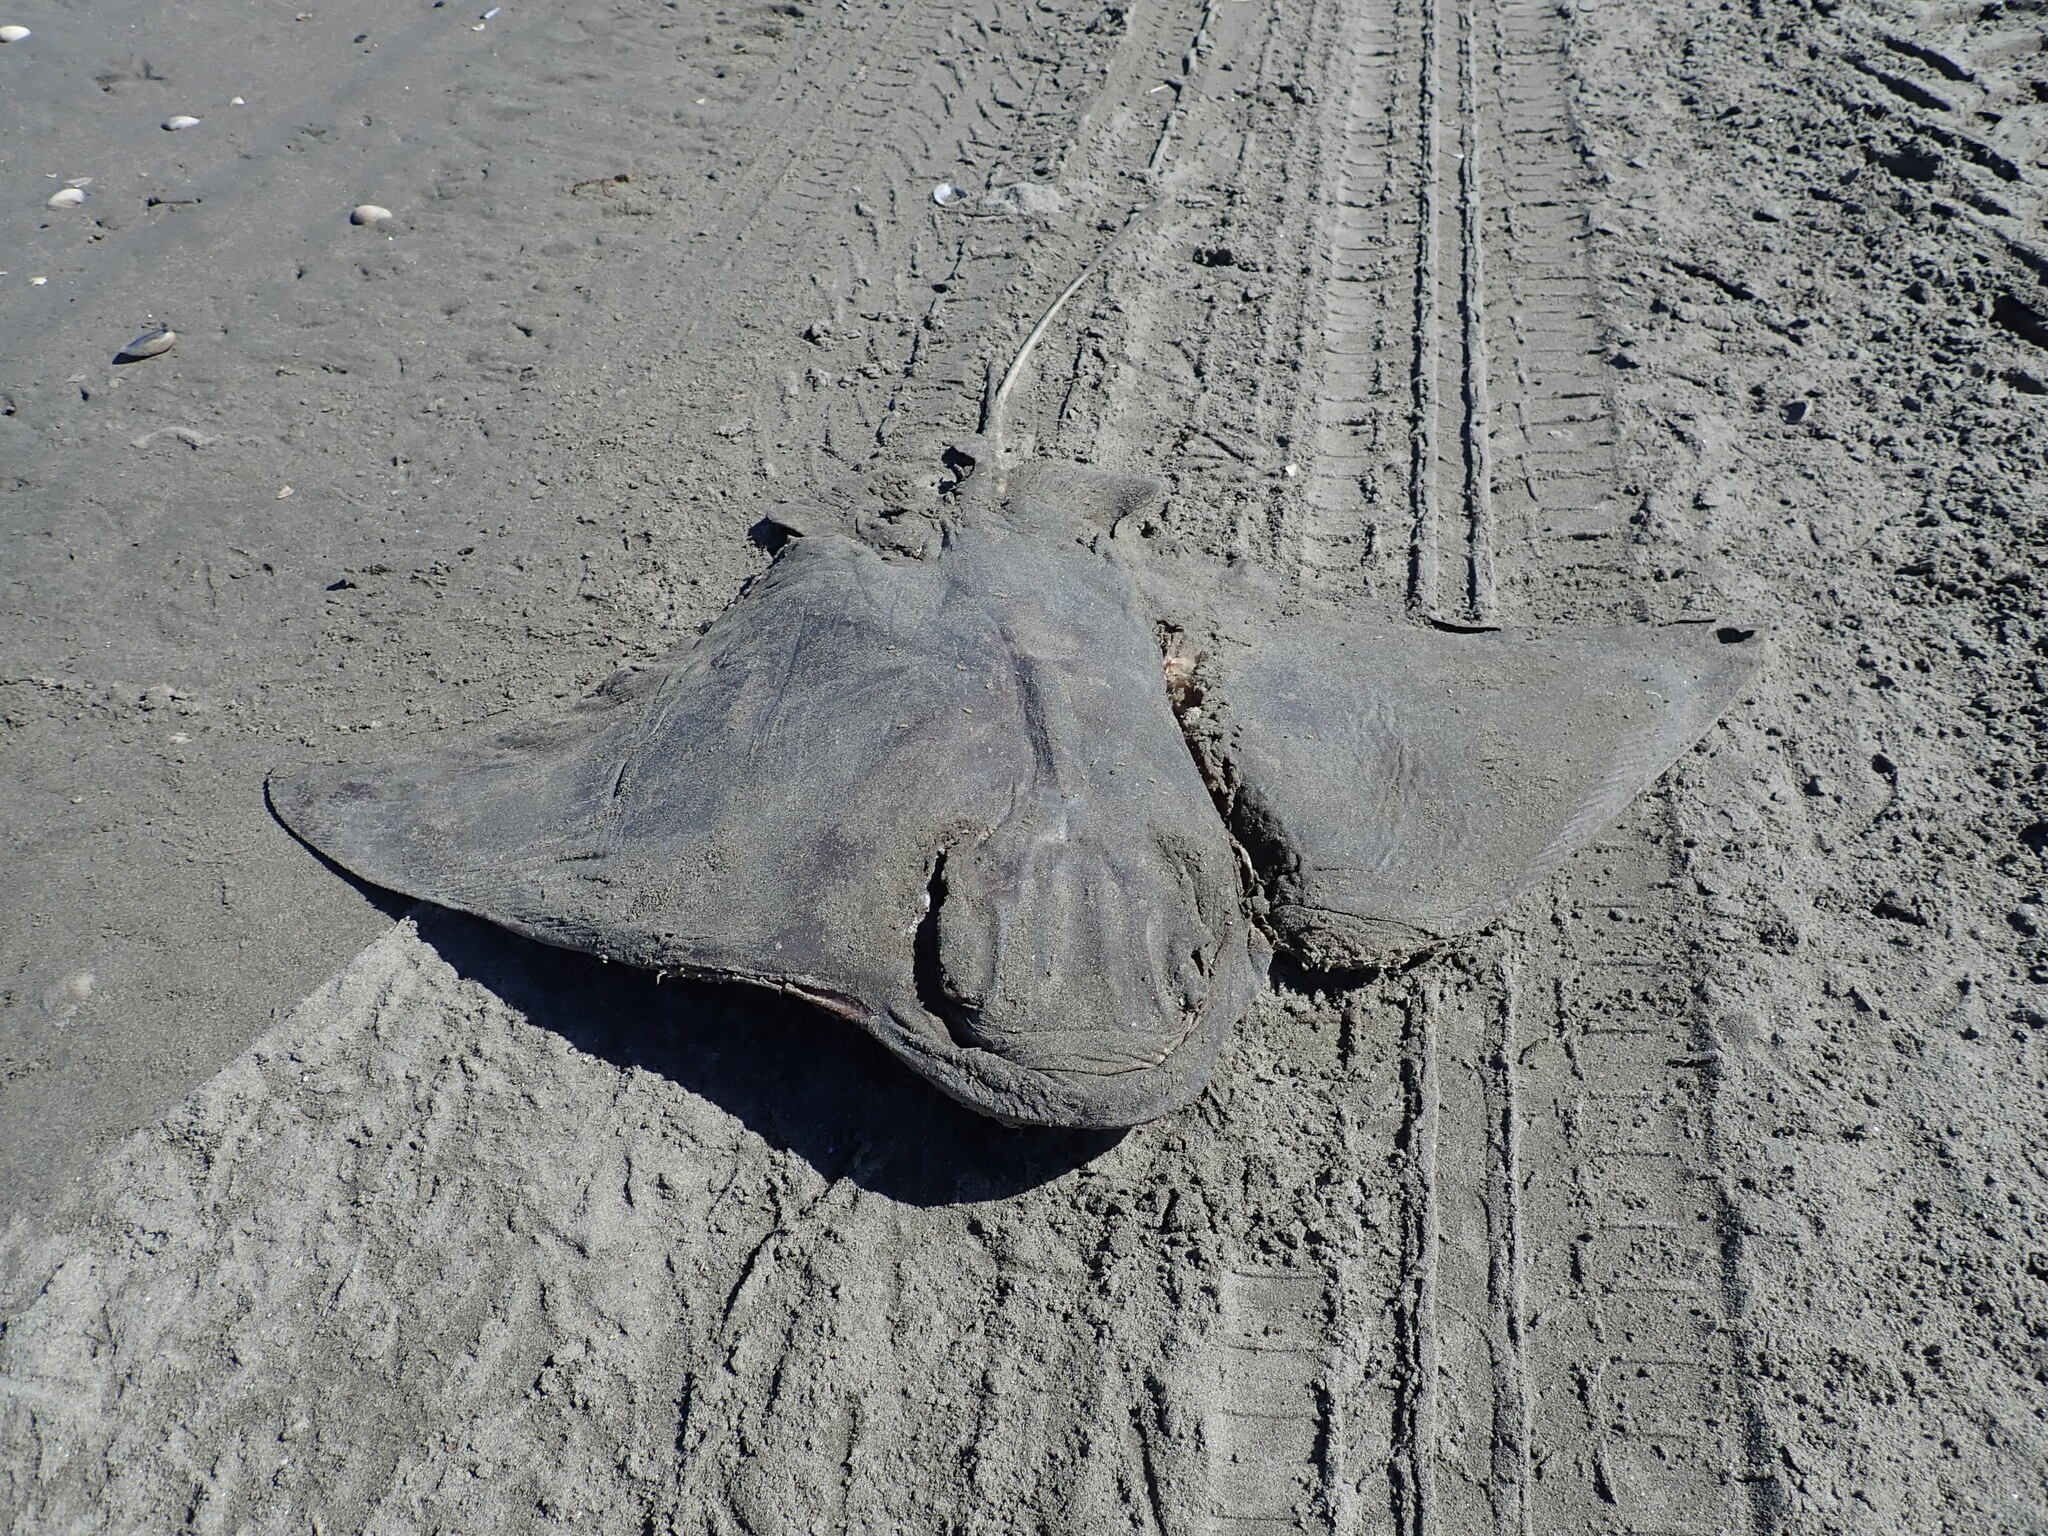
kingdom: Animalia
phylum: Chordata
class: Elasmobranchii
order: Myliobatiformes
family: Myliobatidae
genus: Myliobatis
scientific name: Myliobatis tenuicaudatus
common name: Eagle ray
